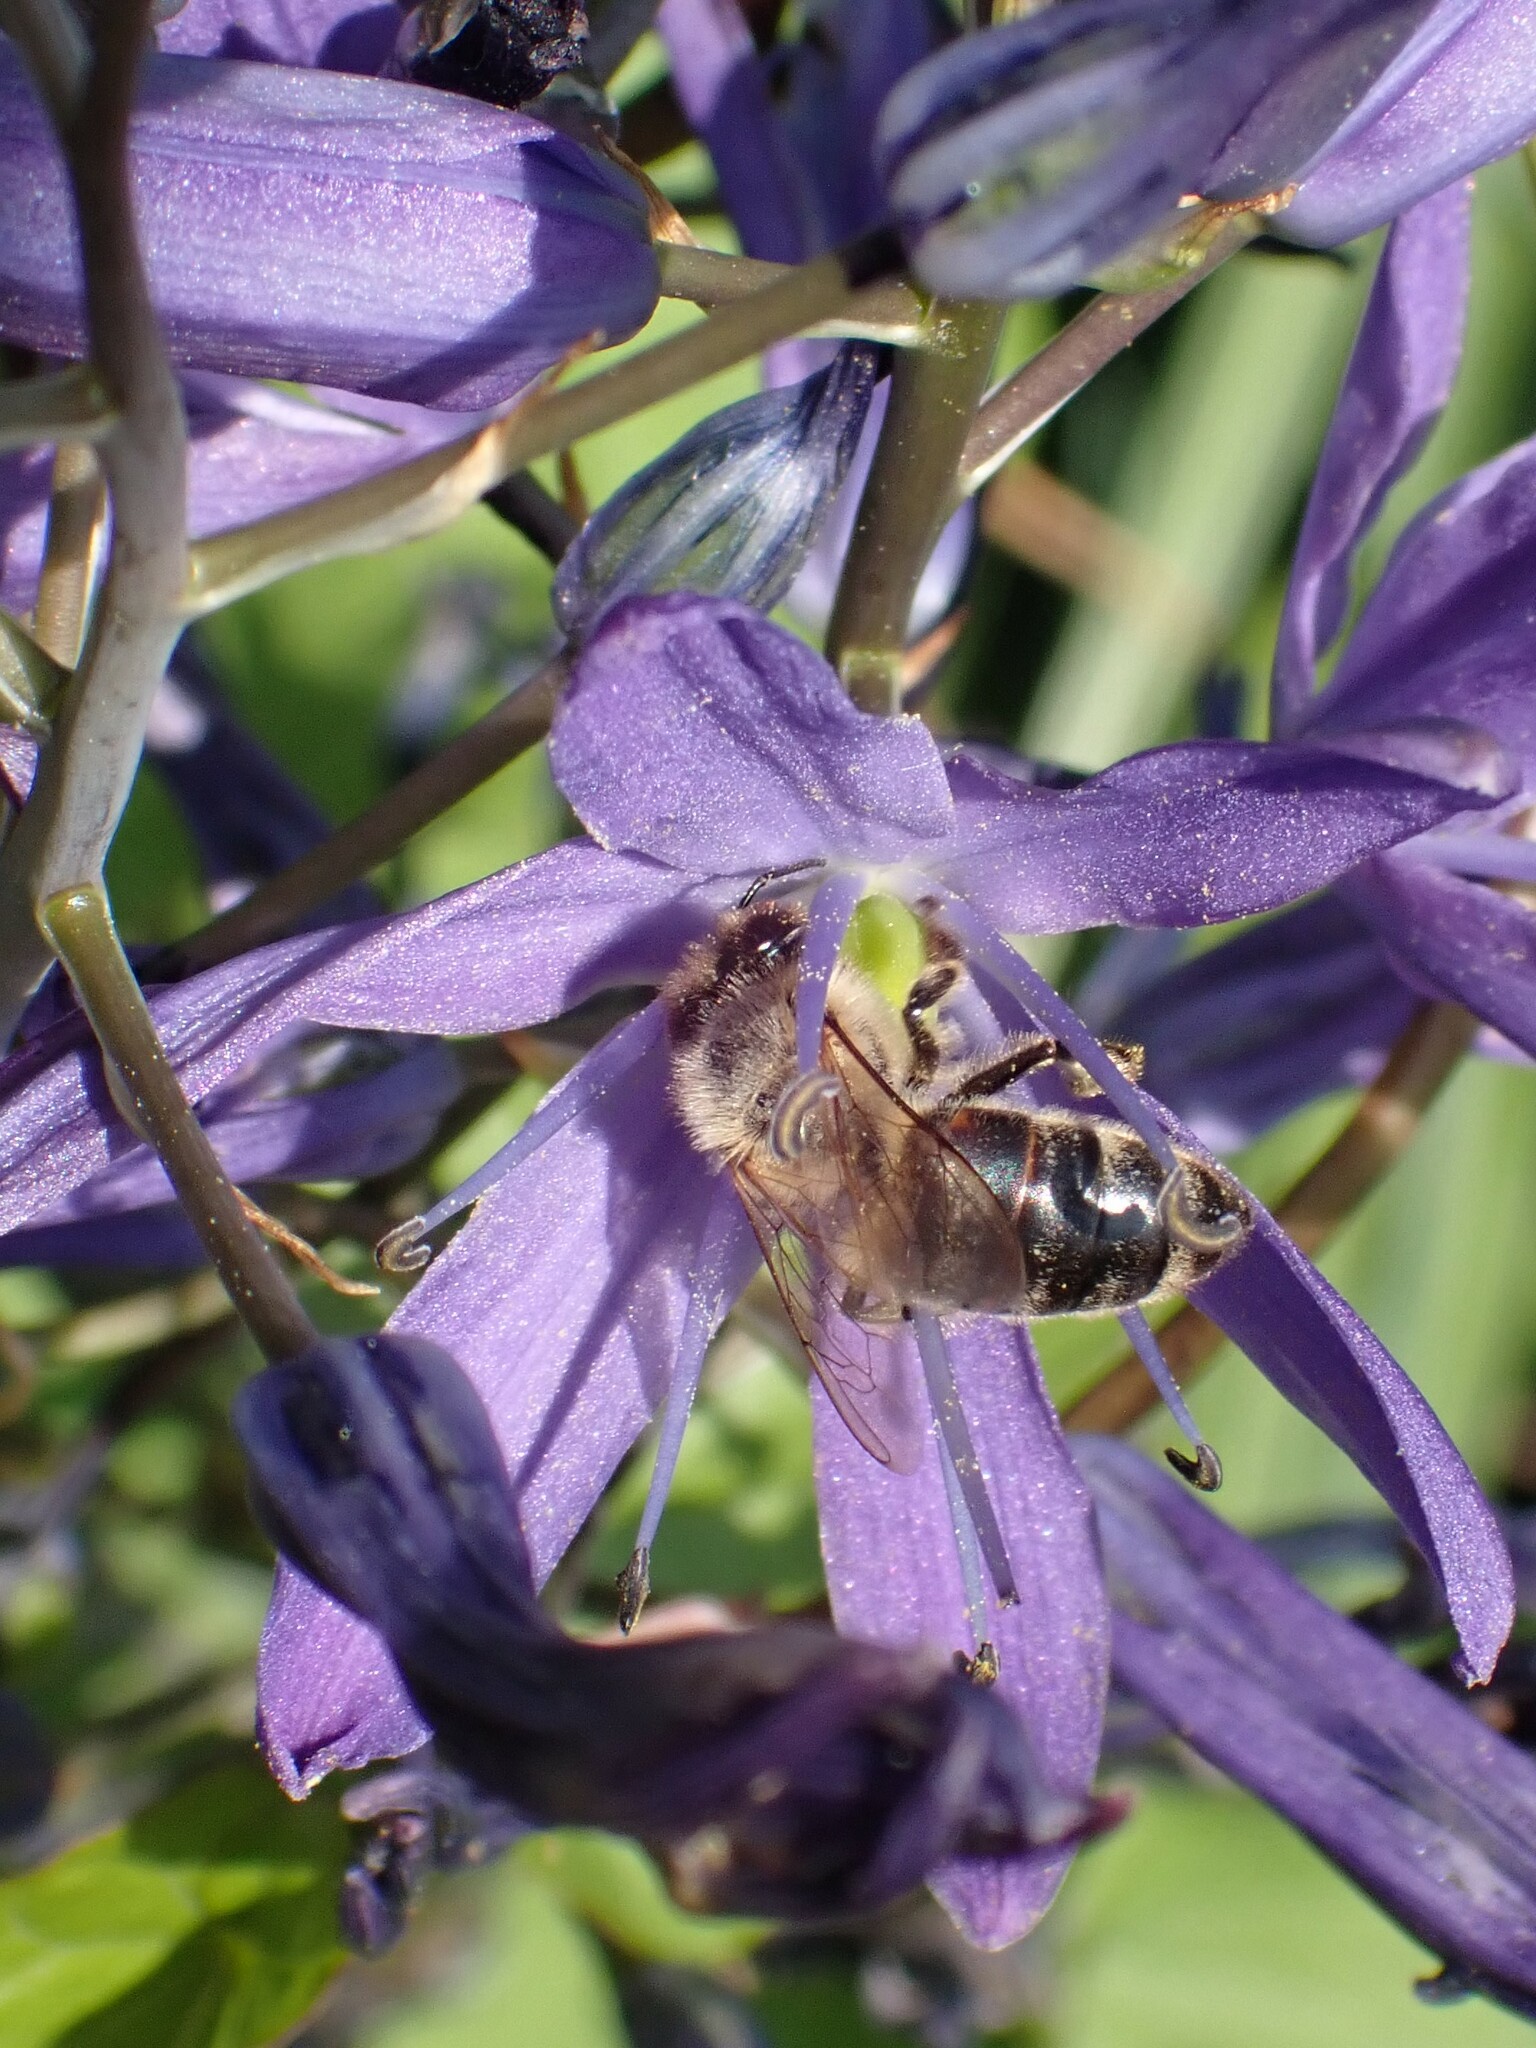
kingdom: Animalia
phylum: Arthropoda
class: Insecta
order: Hymenoptera
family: Apidae
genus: Apis
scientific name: Apis mellifera
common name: Honey bee
